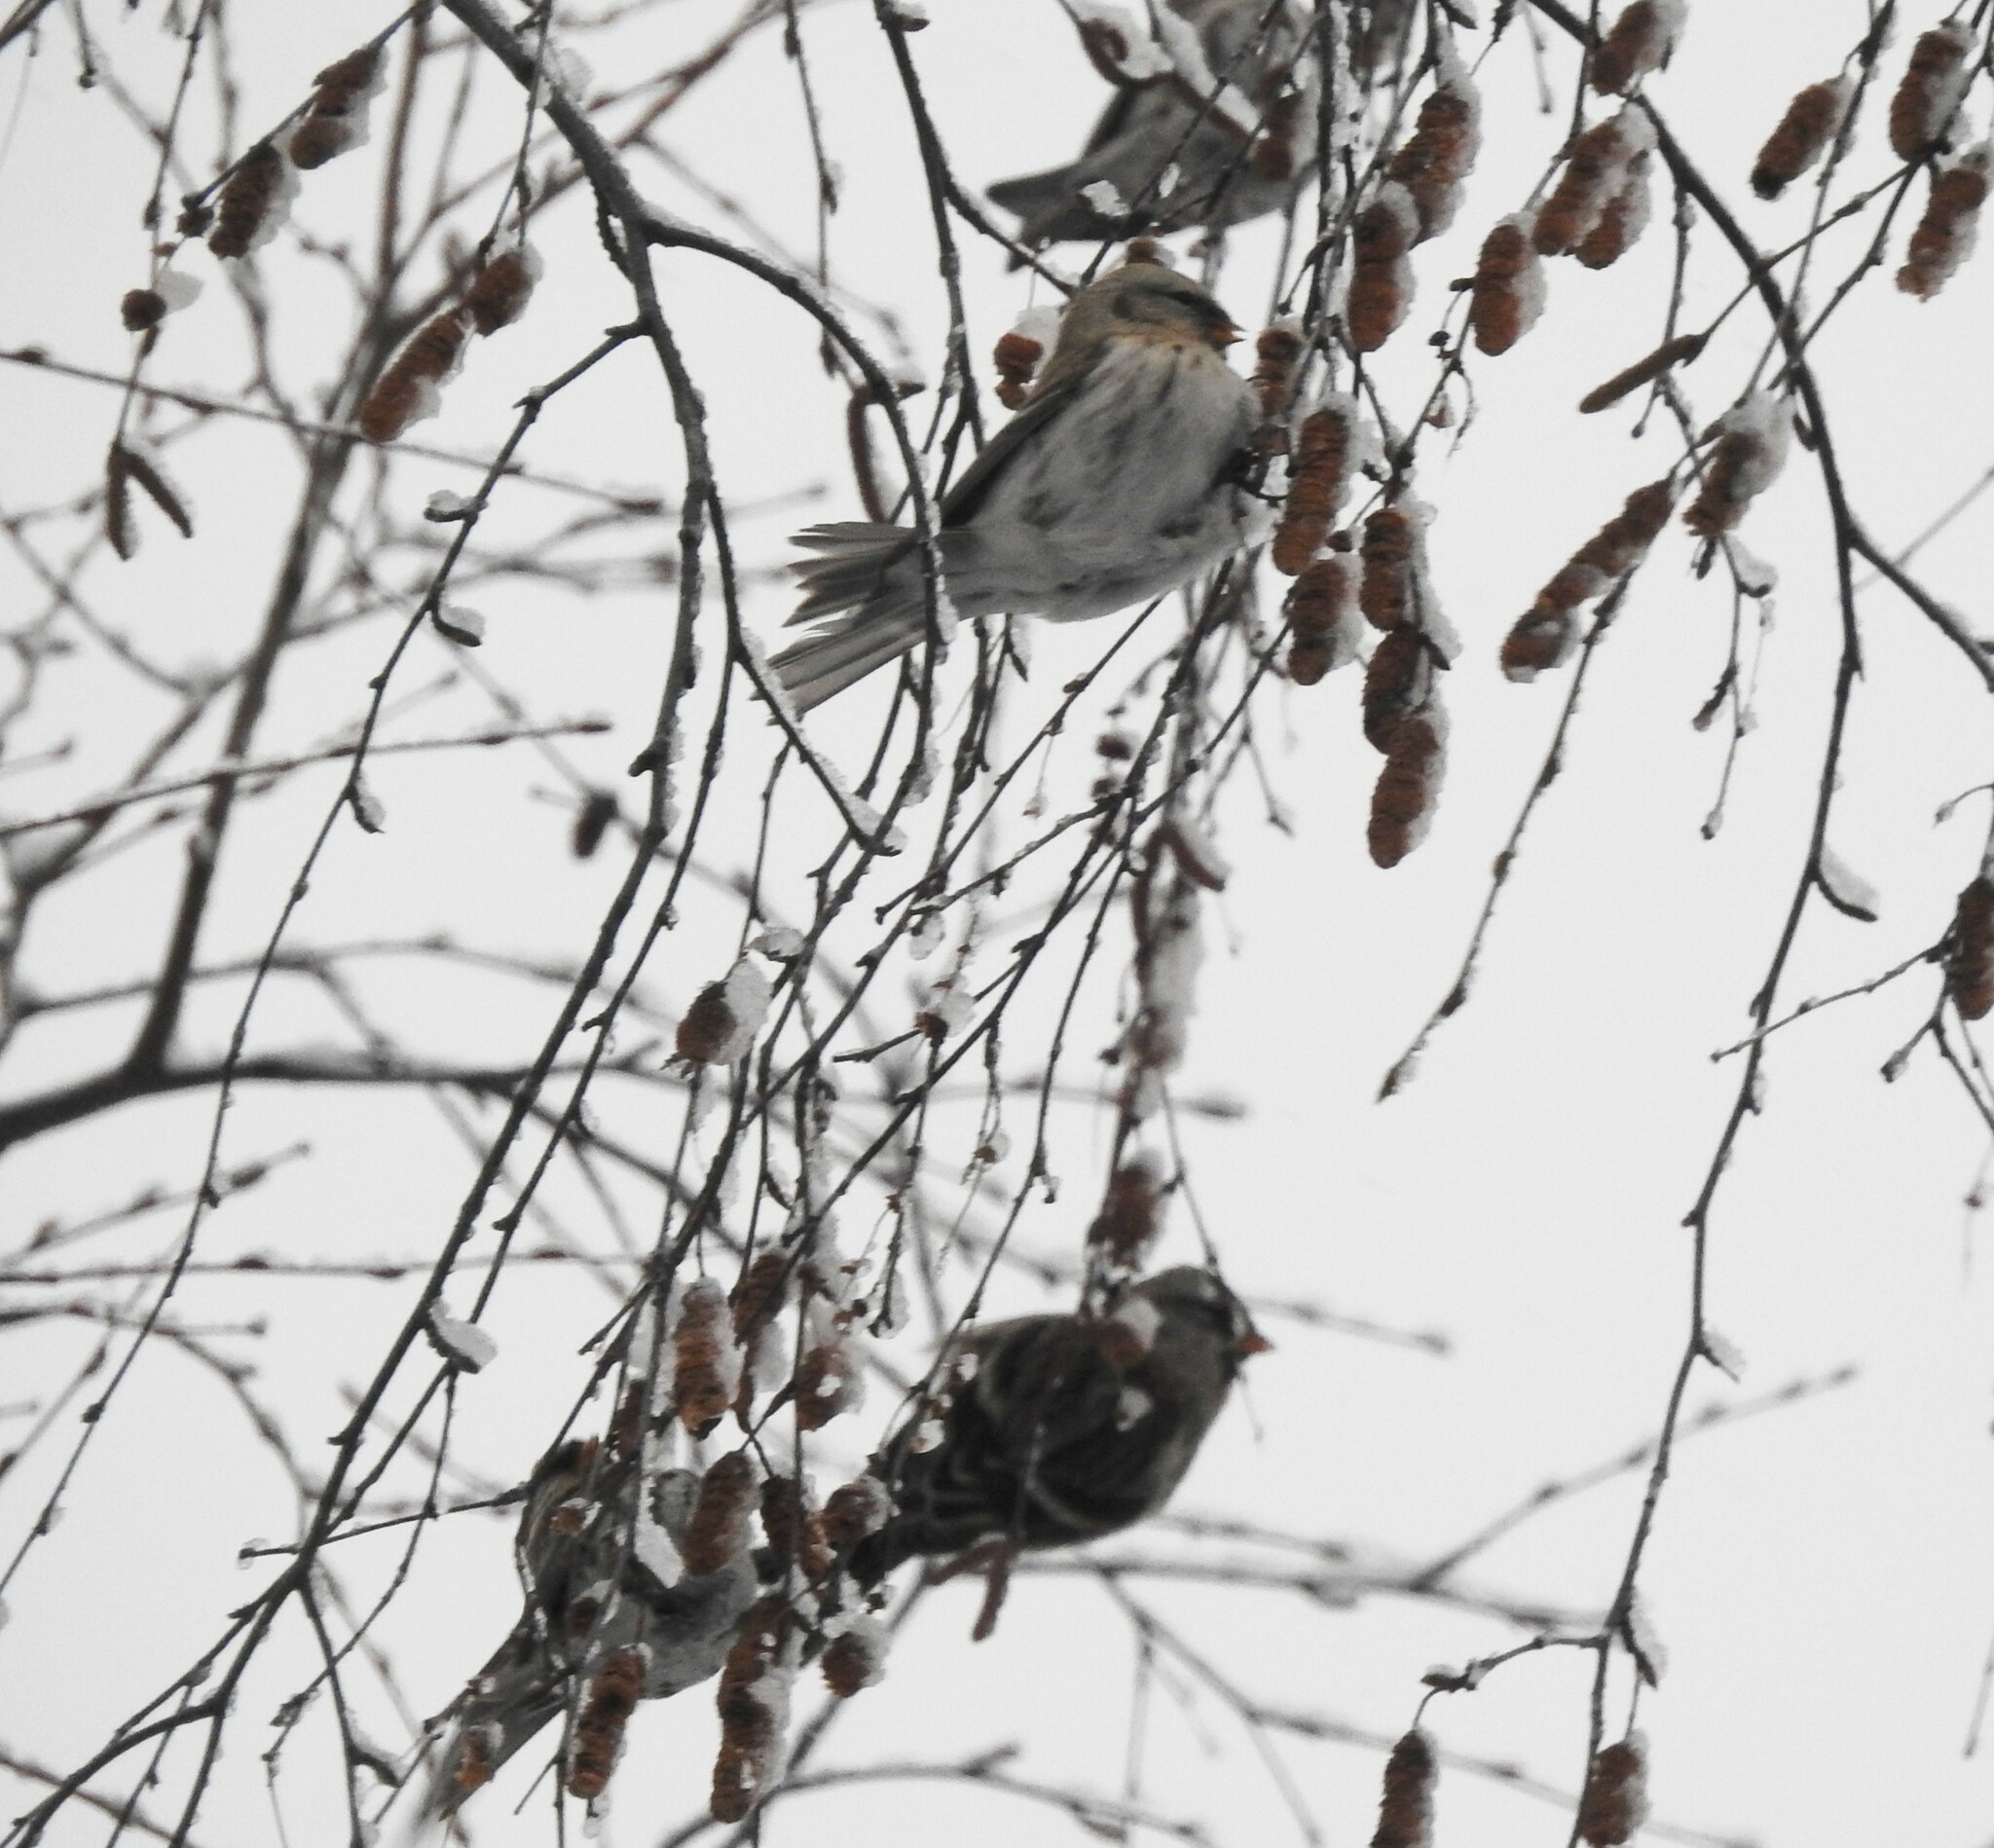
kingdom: Animalia
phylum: Chordata
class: Aves
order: Passeriformes
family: Fringillidae
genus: Acanthis
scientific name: Acanthis hornemanni
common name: Arctic redpoll
